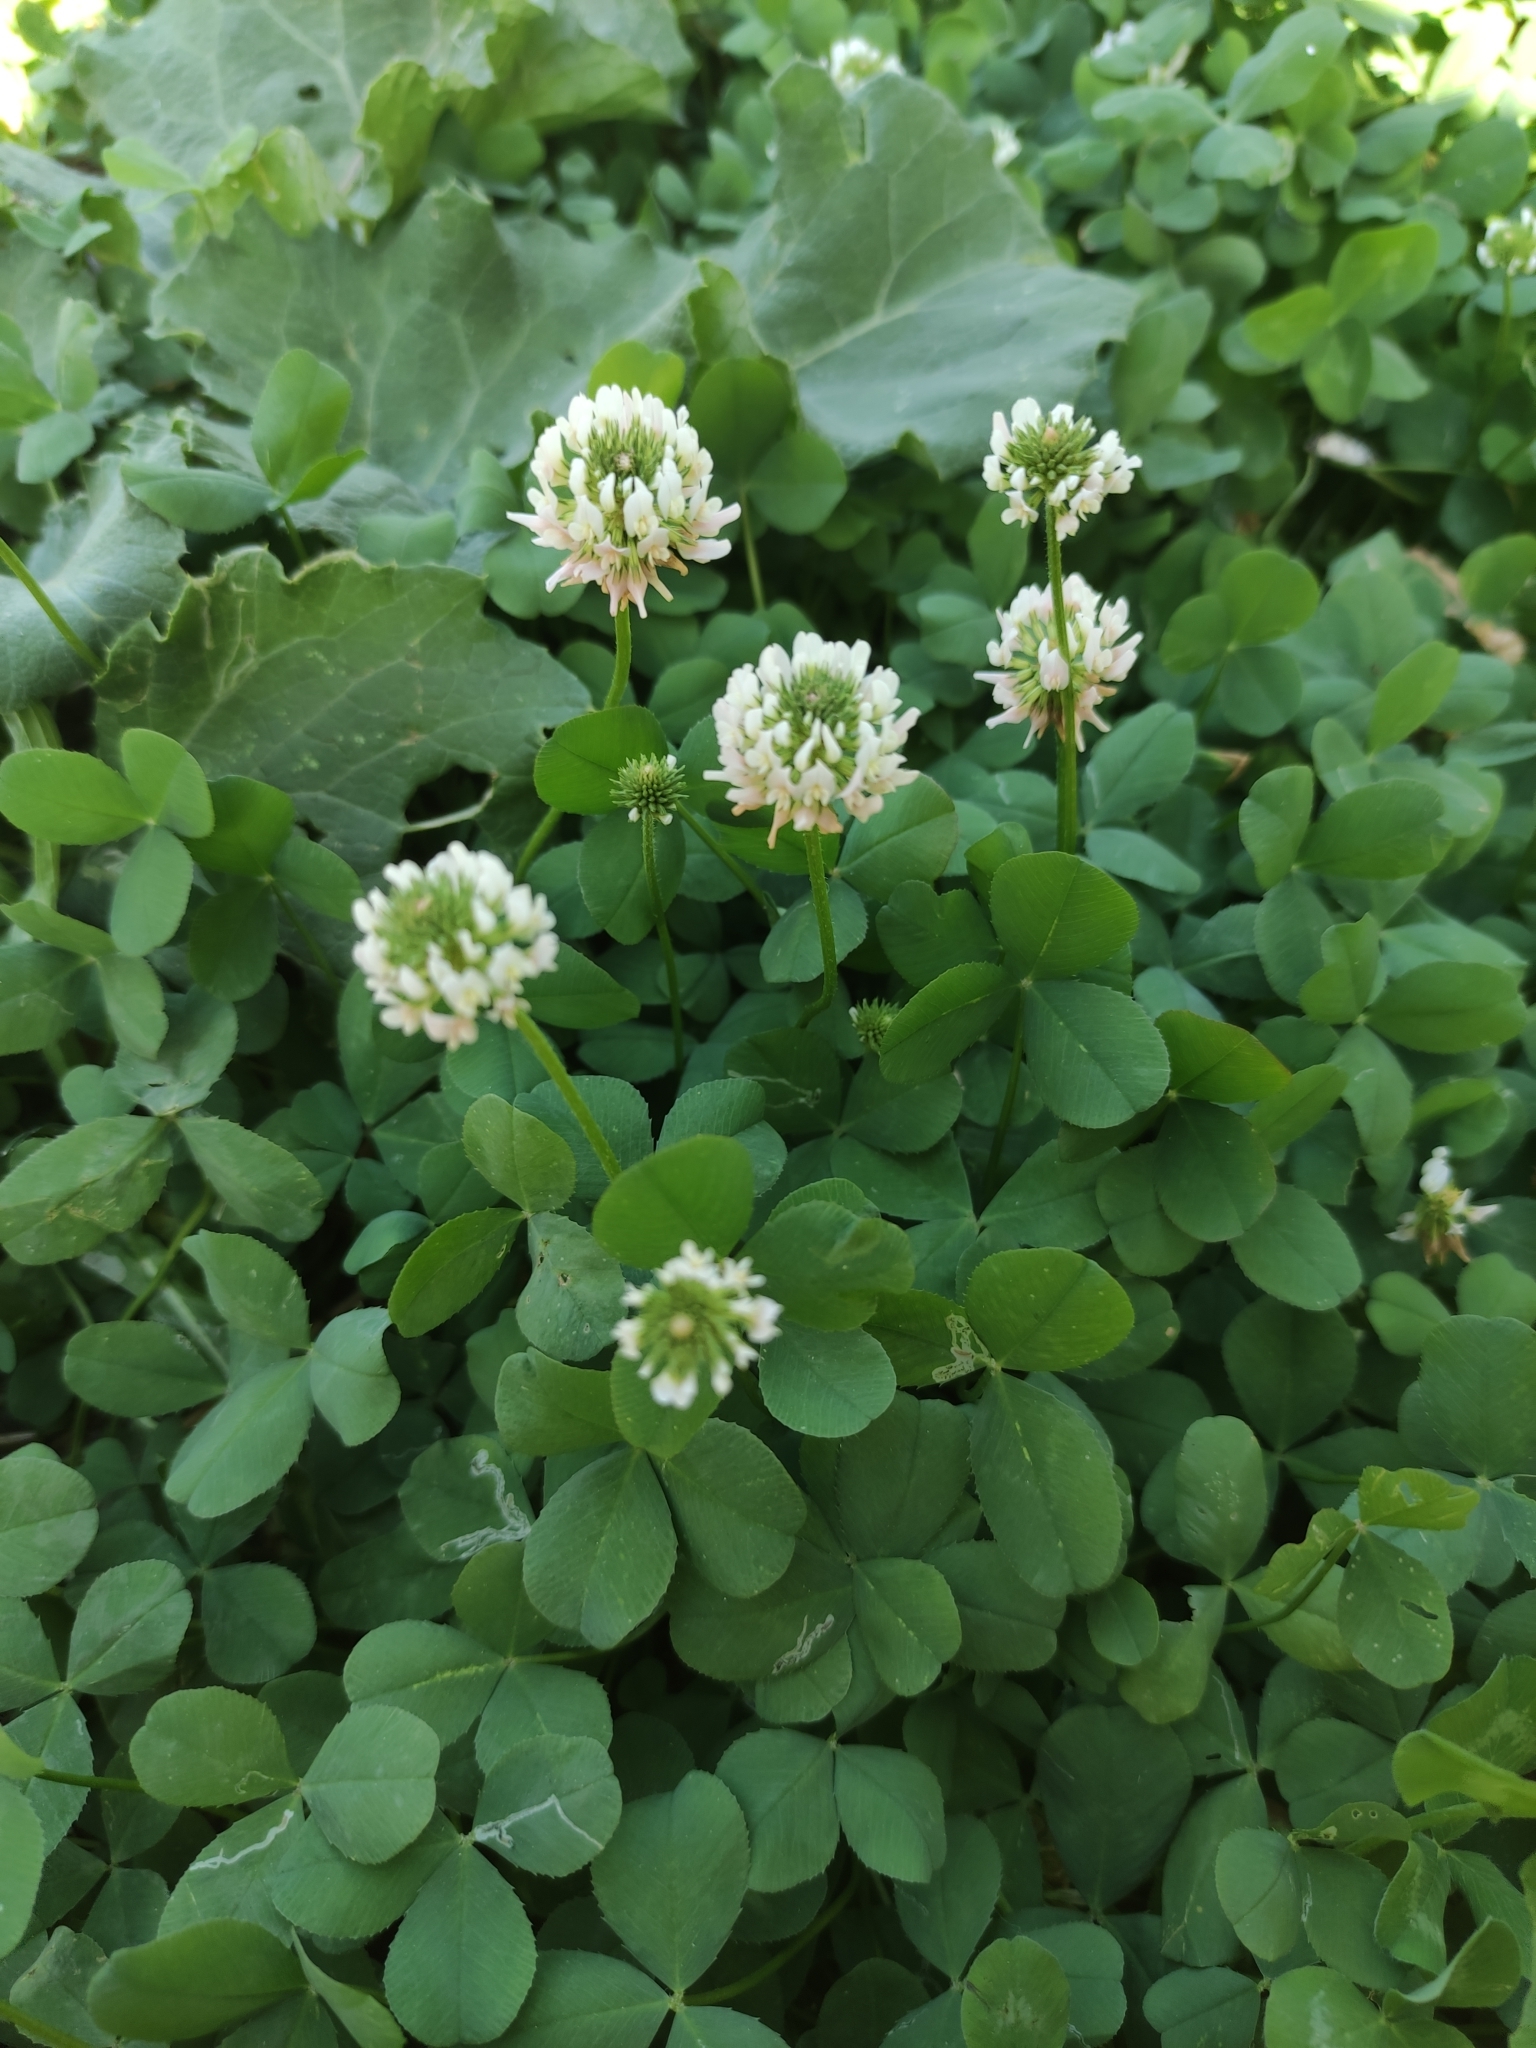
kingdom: Plantae
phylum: Tracheophyta
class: Magnoliopsida
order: Fabales
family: Fabaceae
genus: Trifolium
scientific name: Trifolium repens
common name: White clover
